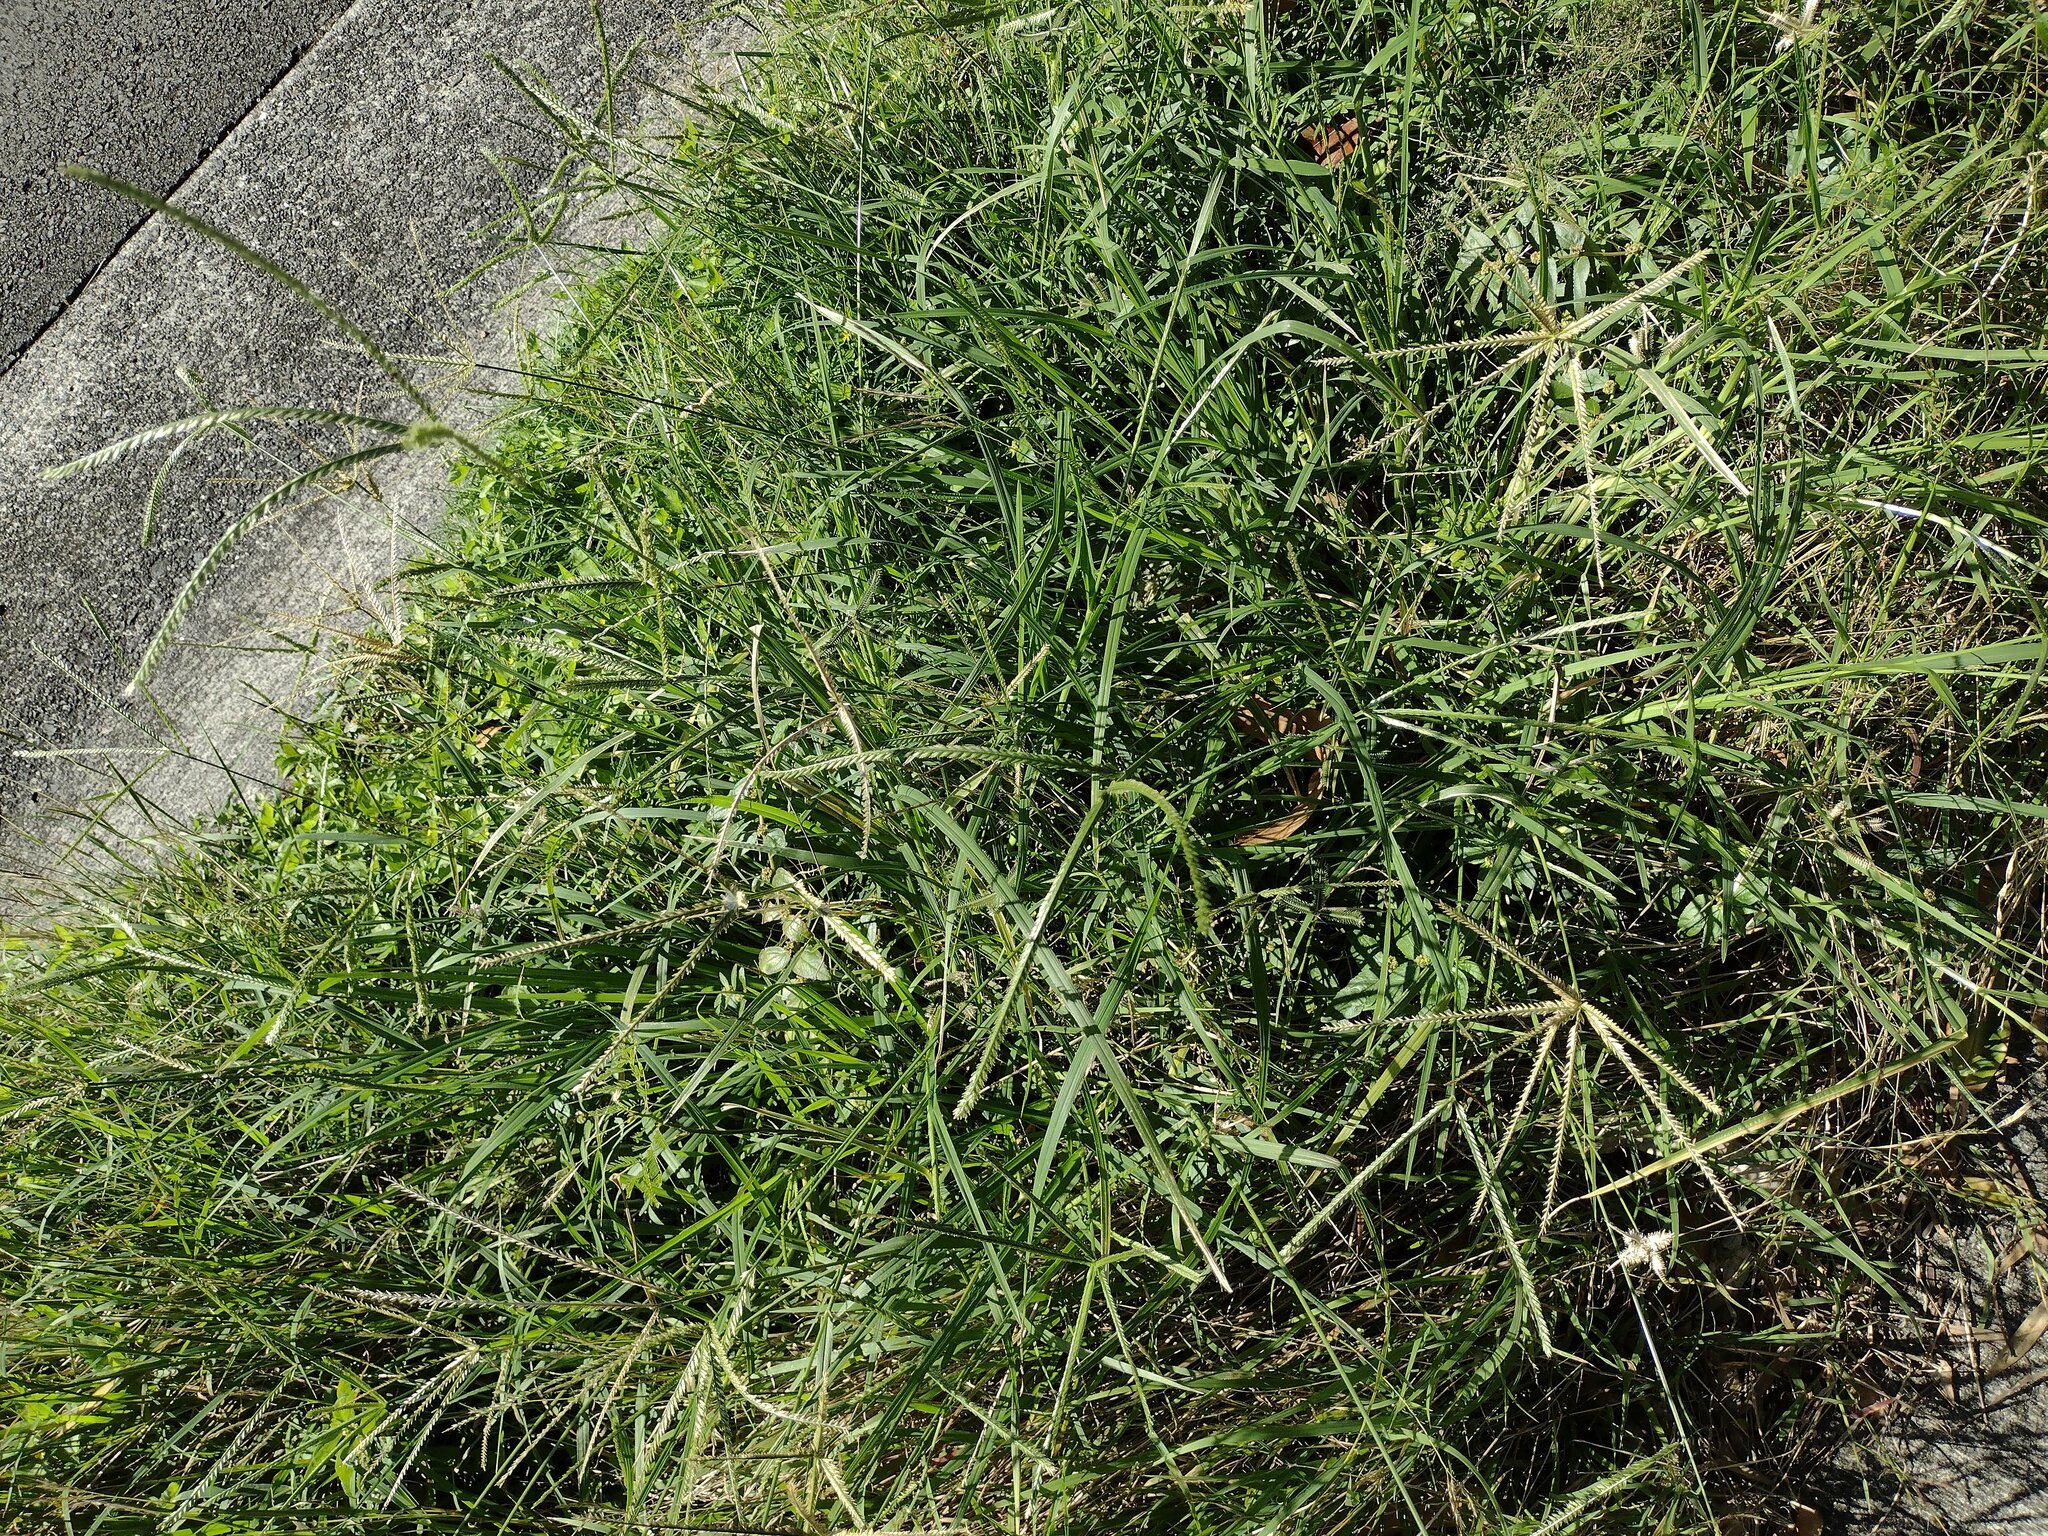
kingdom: Plantae
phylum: Tracheophyta
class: Liliopsida
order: Poales
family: Poaceae
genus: Eleusine
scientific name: Eleusine indica
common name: Yard-grass
